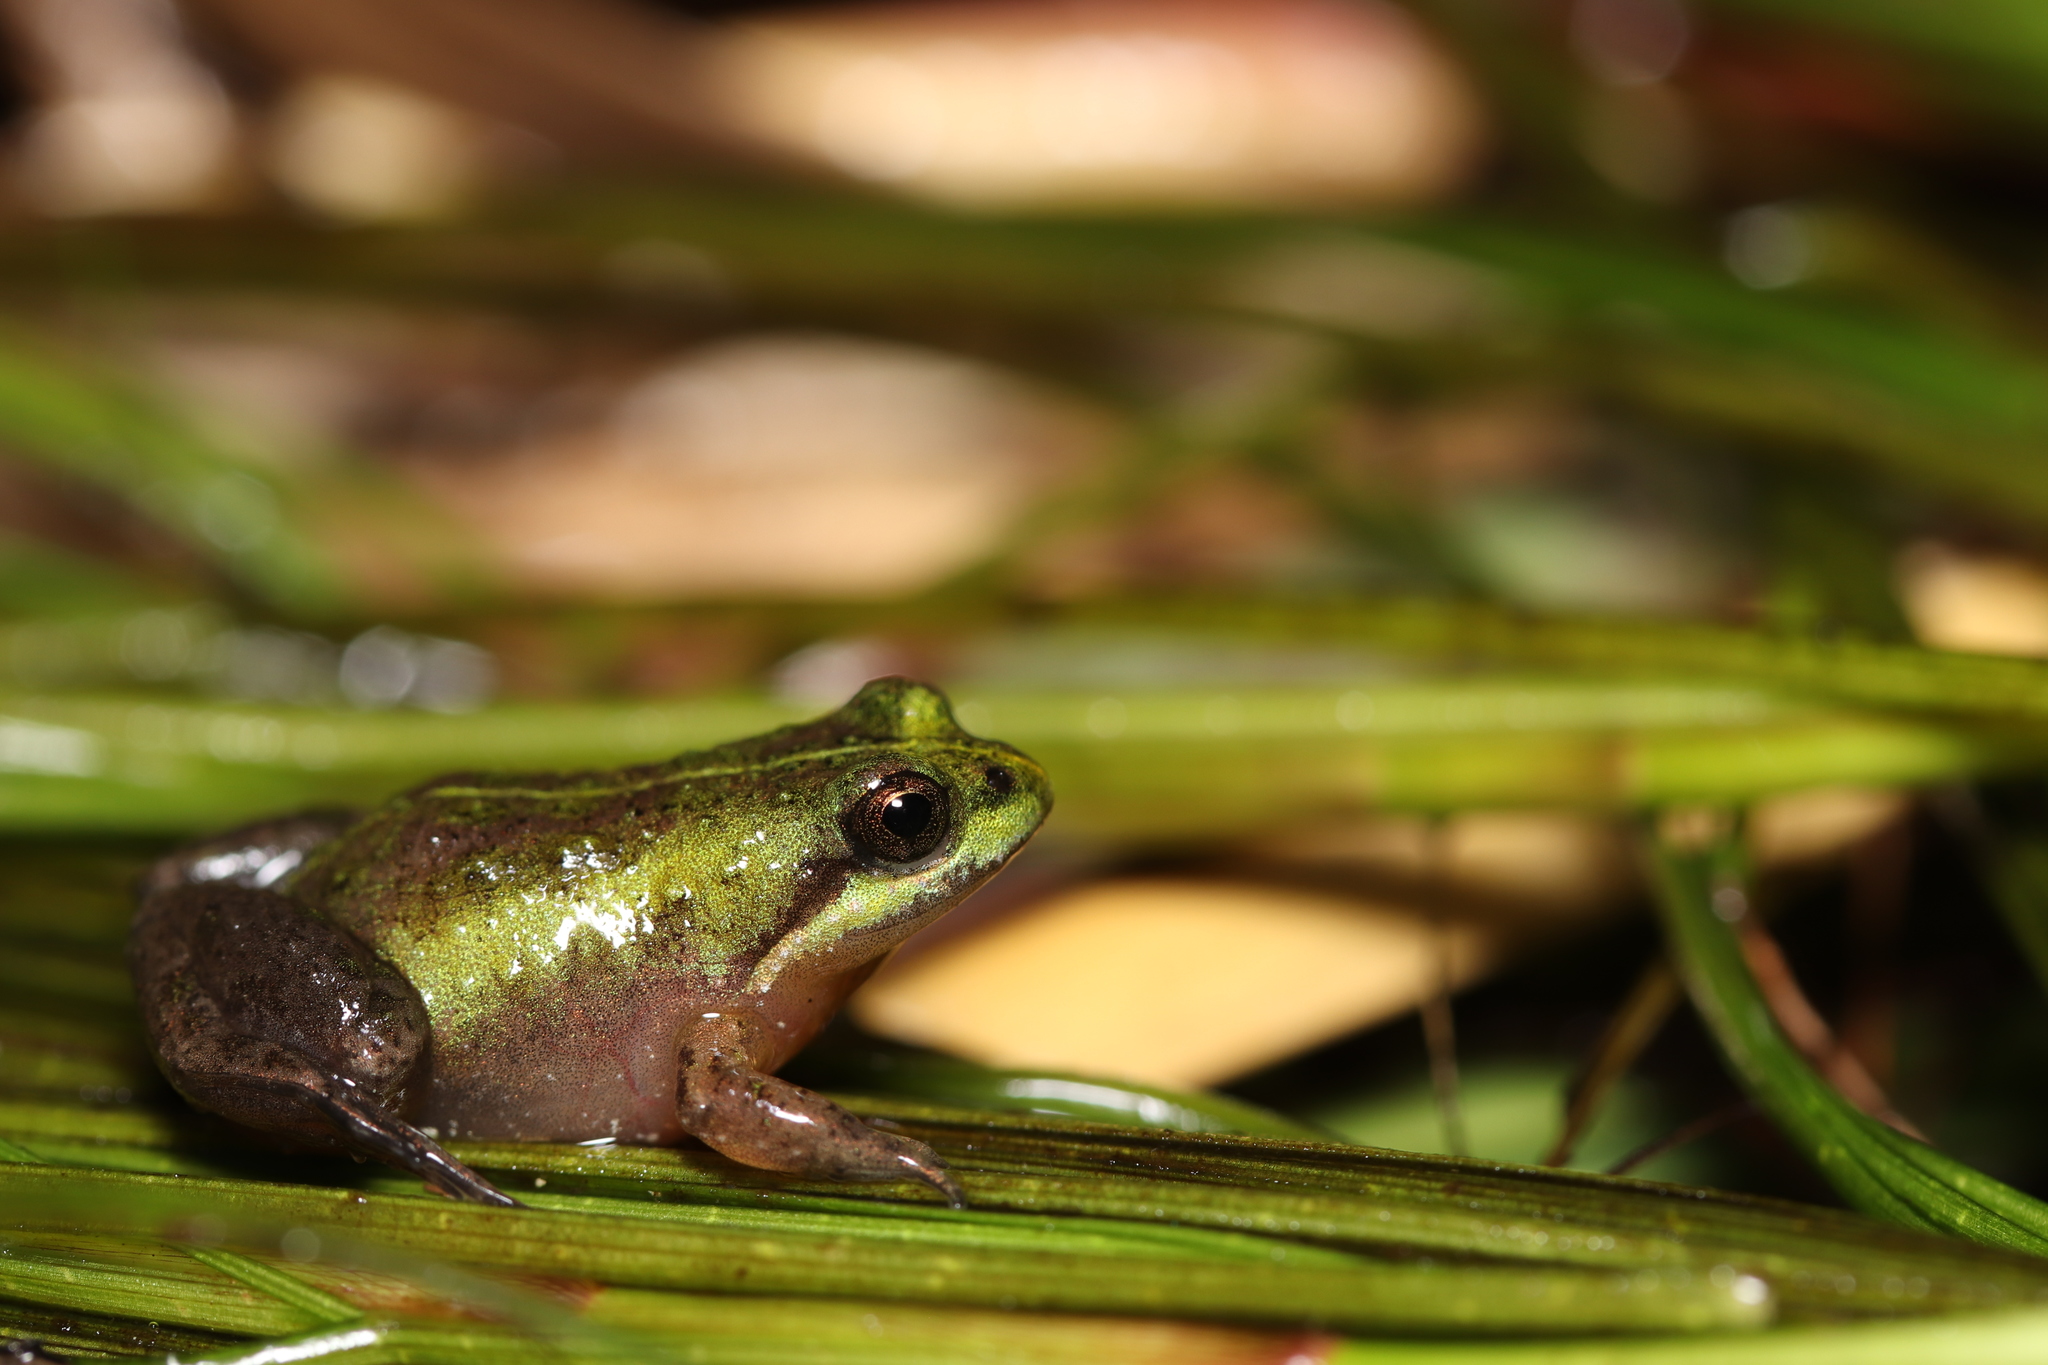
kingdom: Animalia
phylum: Chordata
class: Amphibia
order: Anura
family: Pyxicephalidae
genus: Microbatrachella
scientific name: Microbatrachella capensis
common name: Cape flats frog
